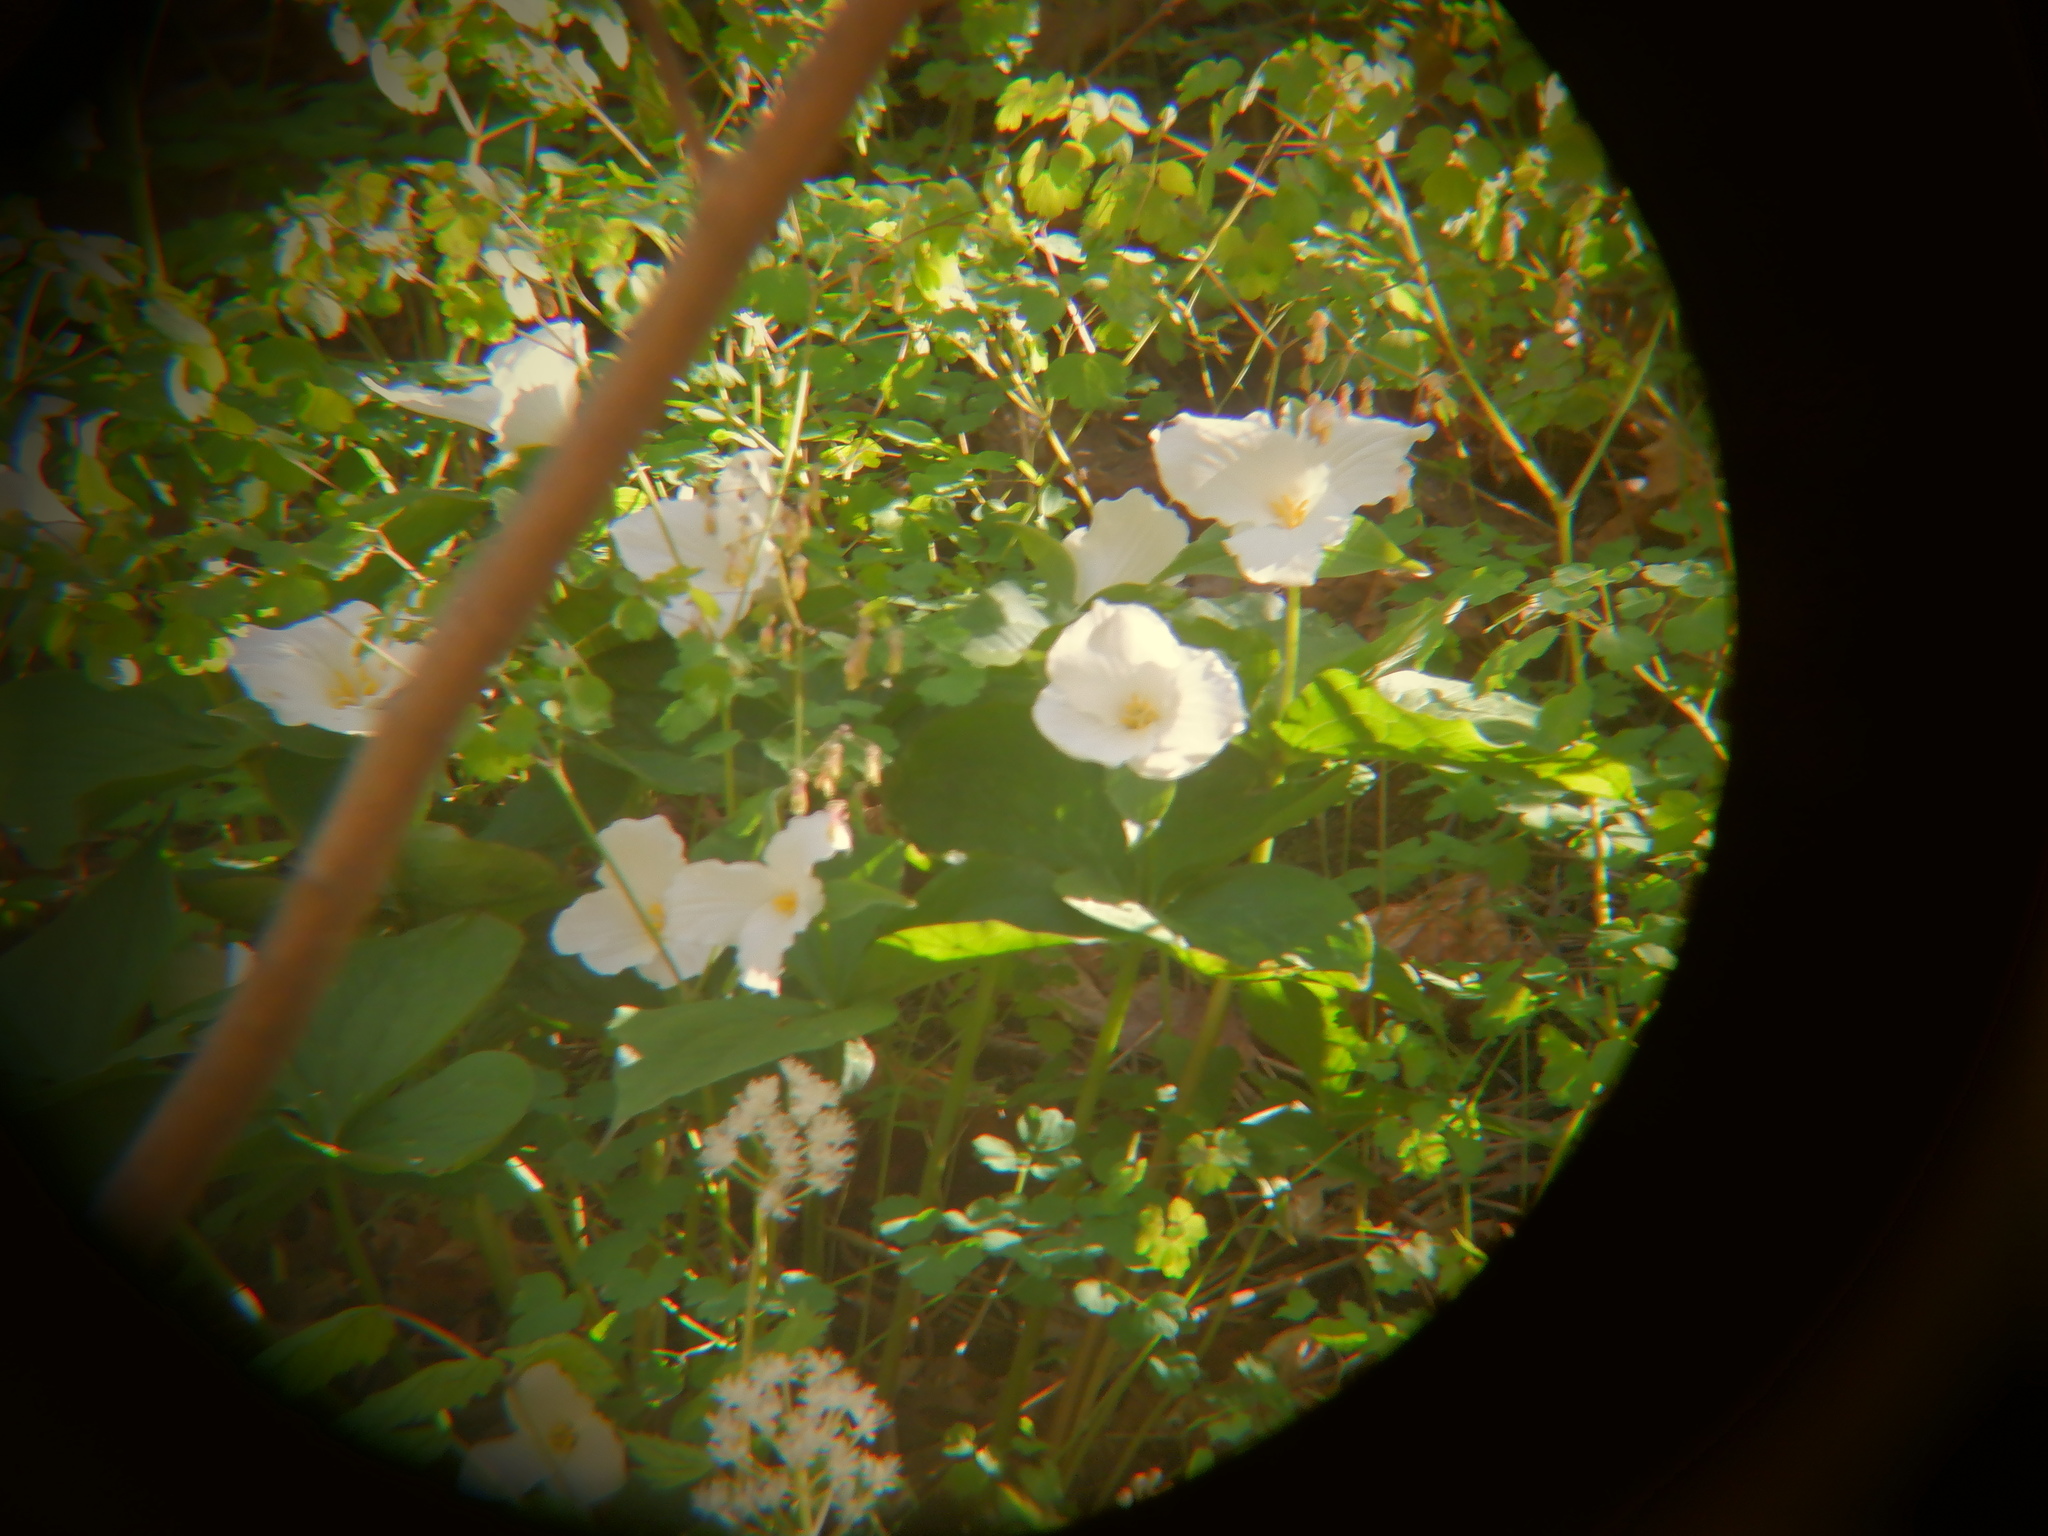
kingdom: Plantae
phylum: Tracheophyta
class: Liliopsida
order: Liliales
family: Melanthiaceae
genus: Trillium
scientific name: Trillium grandiflorum
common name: Great white trillium
